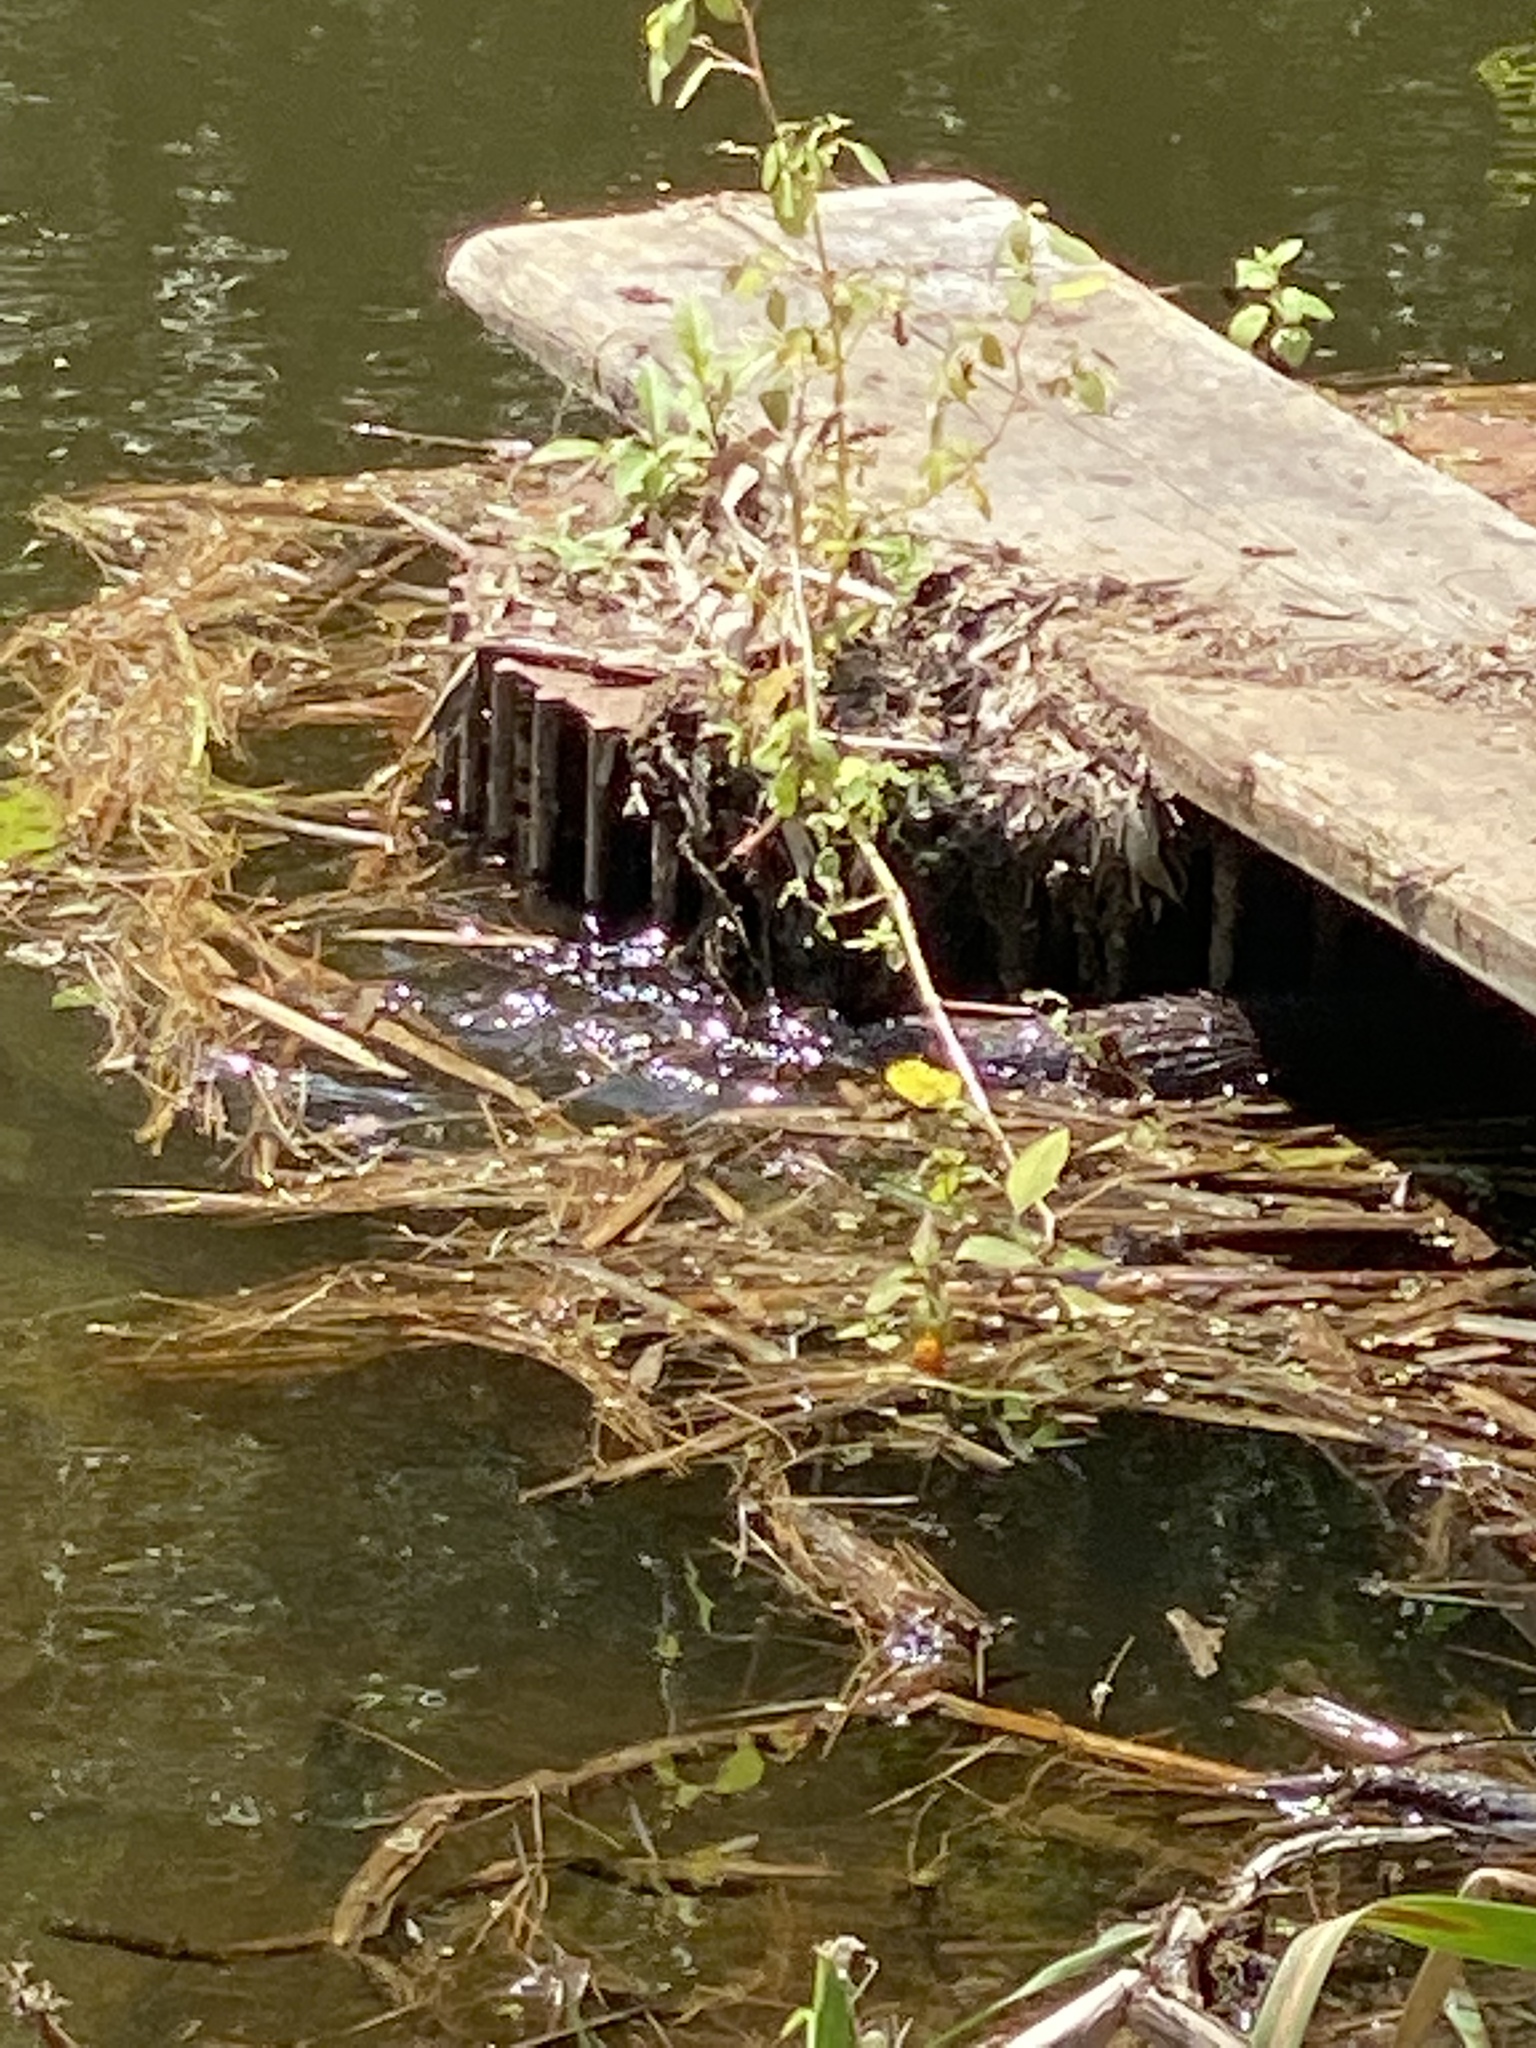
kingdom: Animalia
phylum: Chordata
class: Mammalia
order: Carnivora
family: Mustelidae
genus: Mustela
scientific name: Mustela
